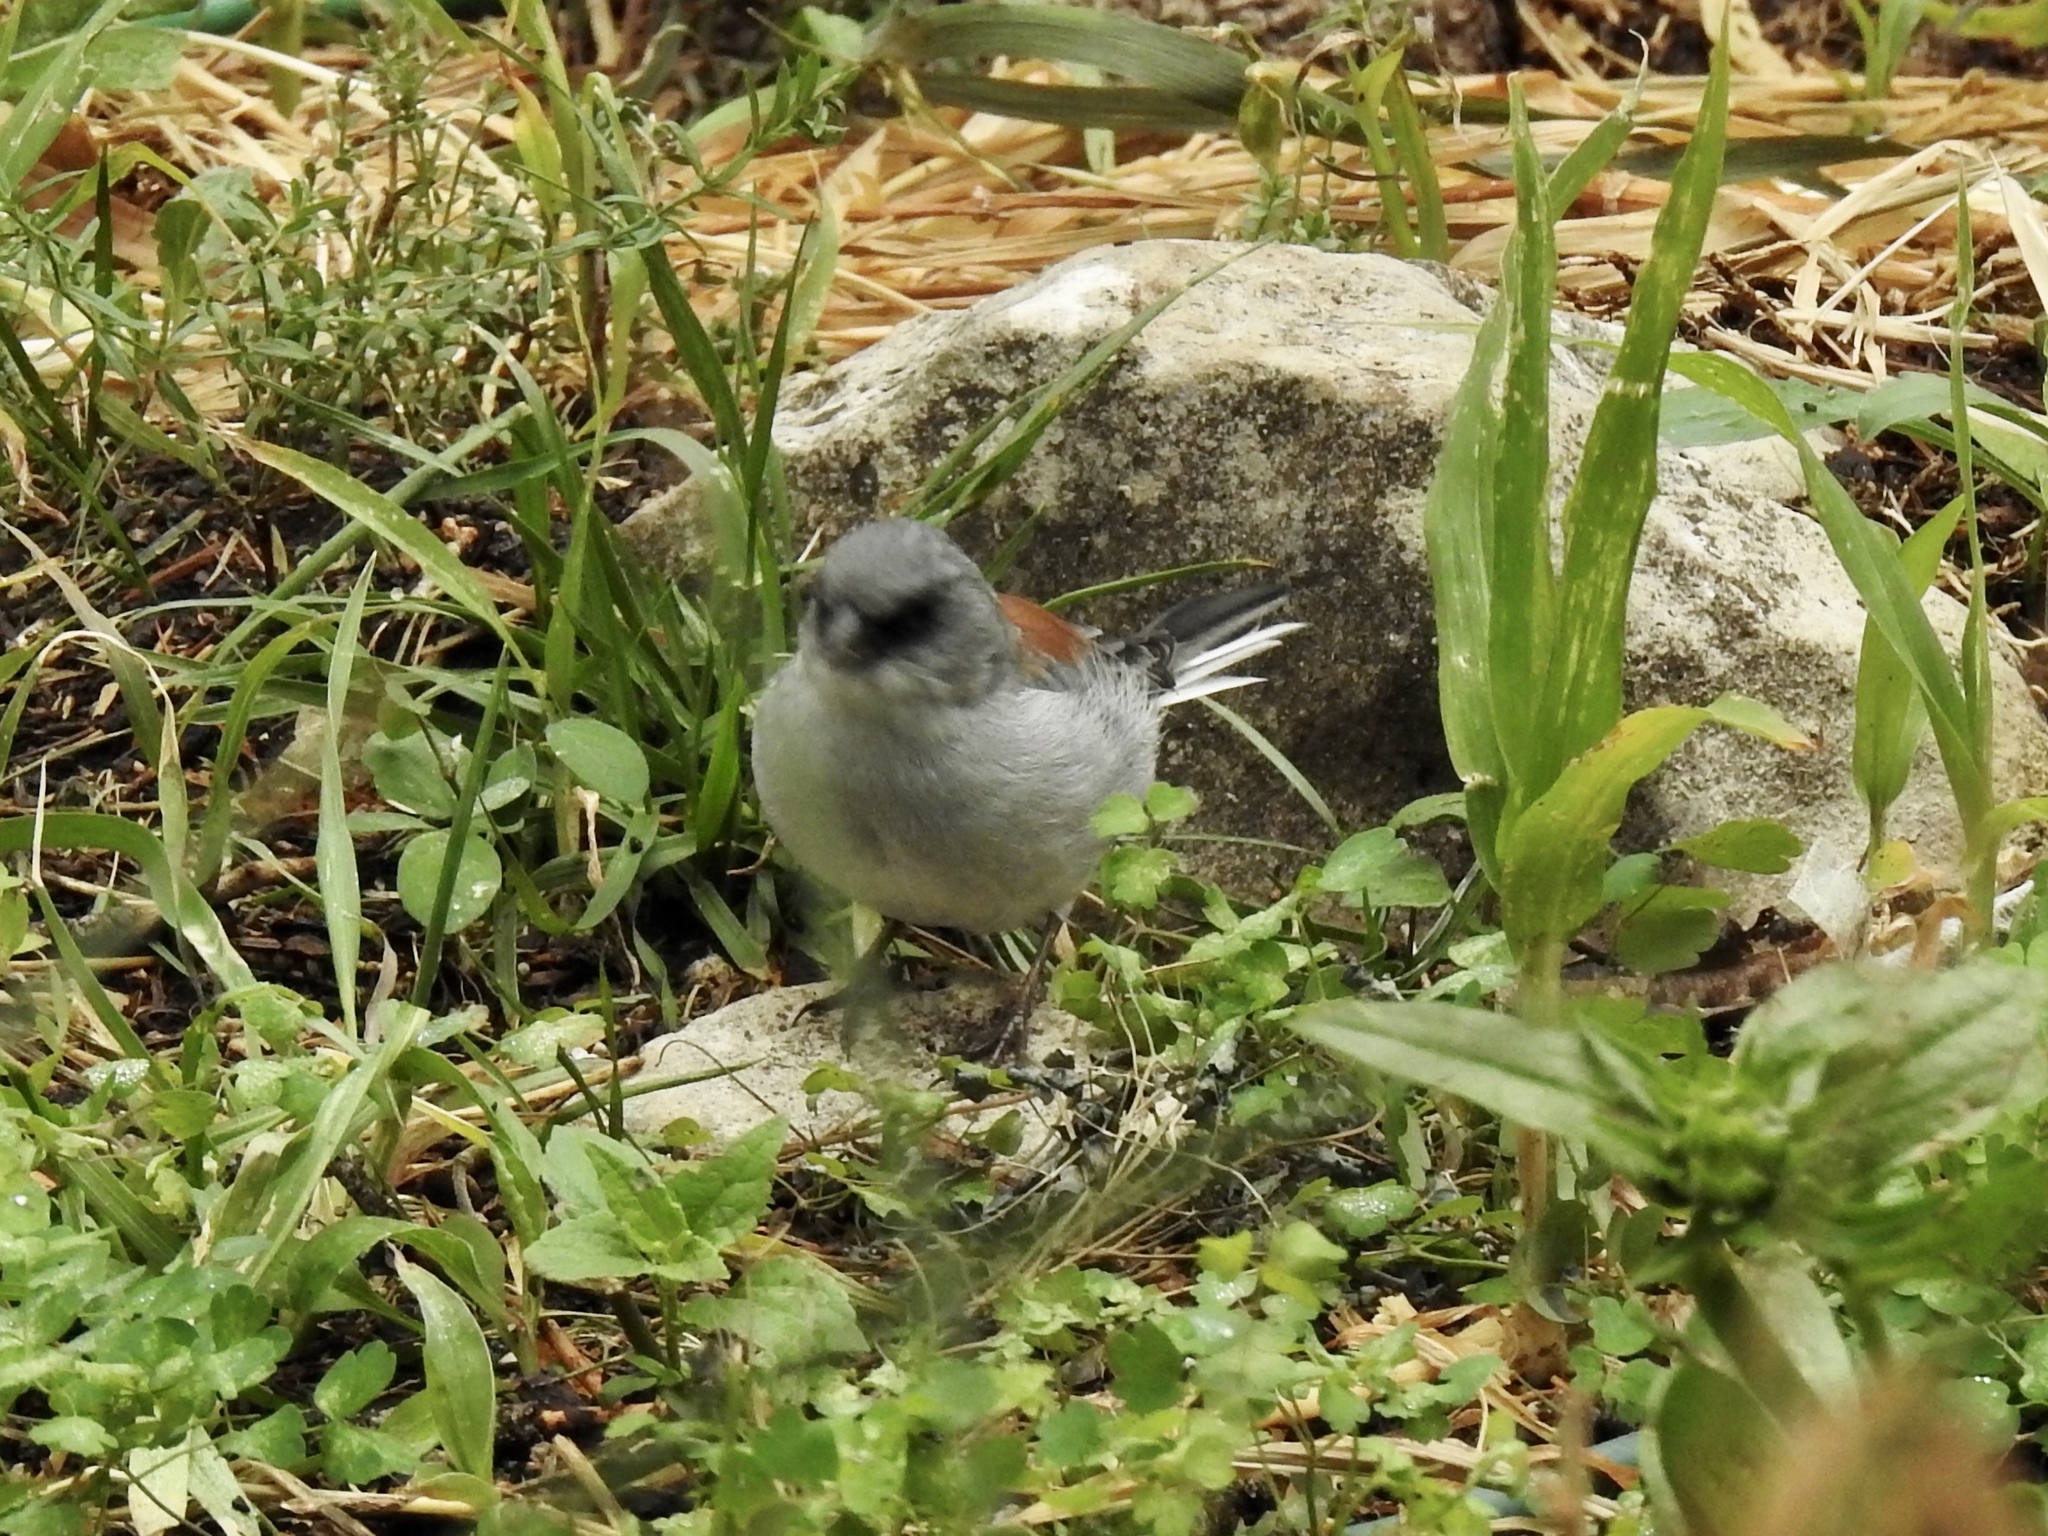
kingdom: Animalia
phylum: Chordata
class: Aves
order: Passeriformes
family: Passerellidae
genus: Junco
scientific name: Junco hyemalis
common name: Dark-eyed junco
